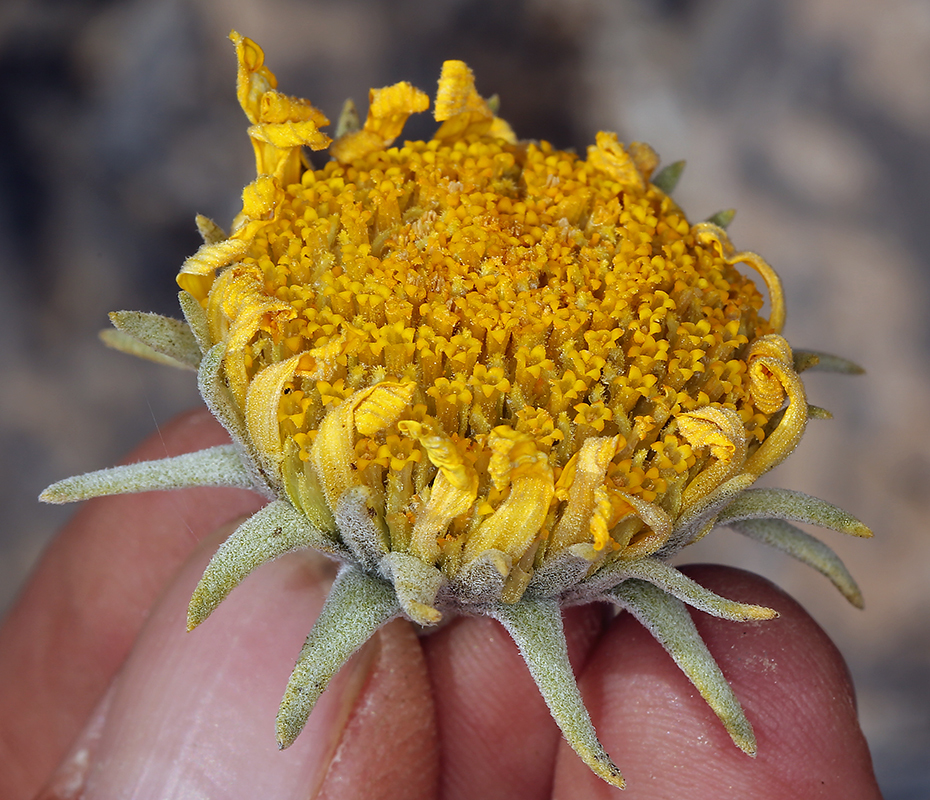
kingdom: Plantae
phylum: Tracheophyta
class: Magnoliopsida
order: Asterales
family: Asteraceae
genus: Enceliopsis
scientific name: Enceliopsis nudicaulis
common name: Naked-stem daisy
